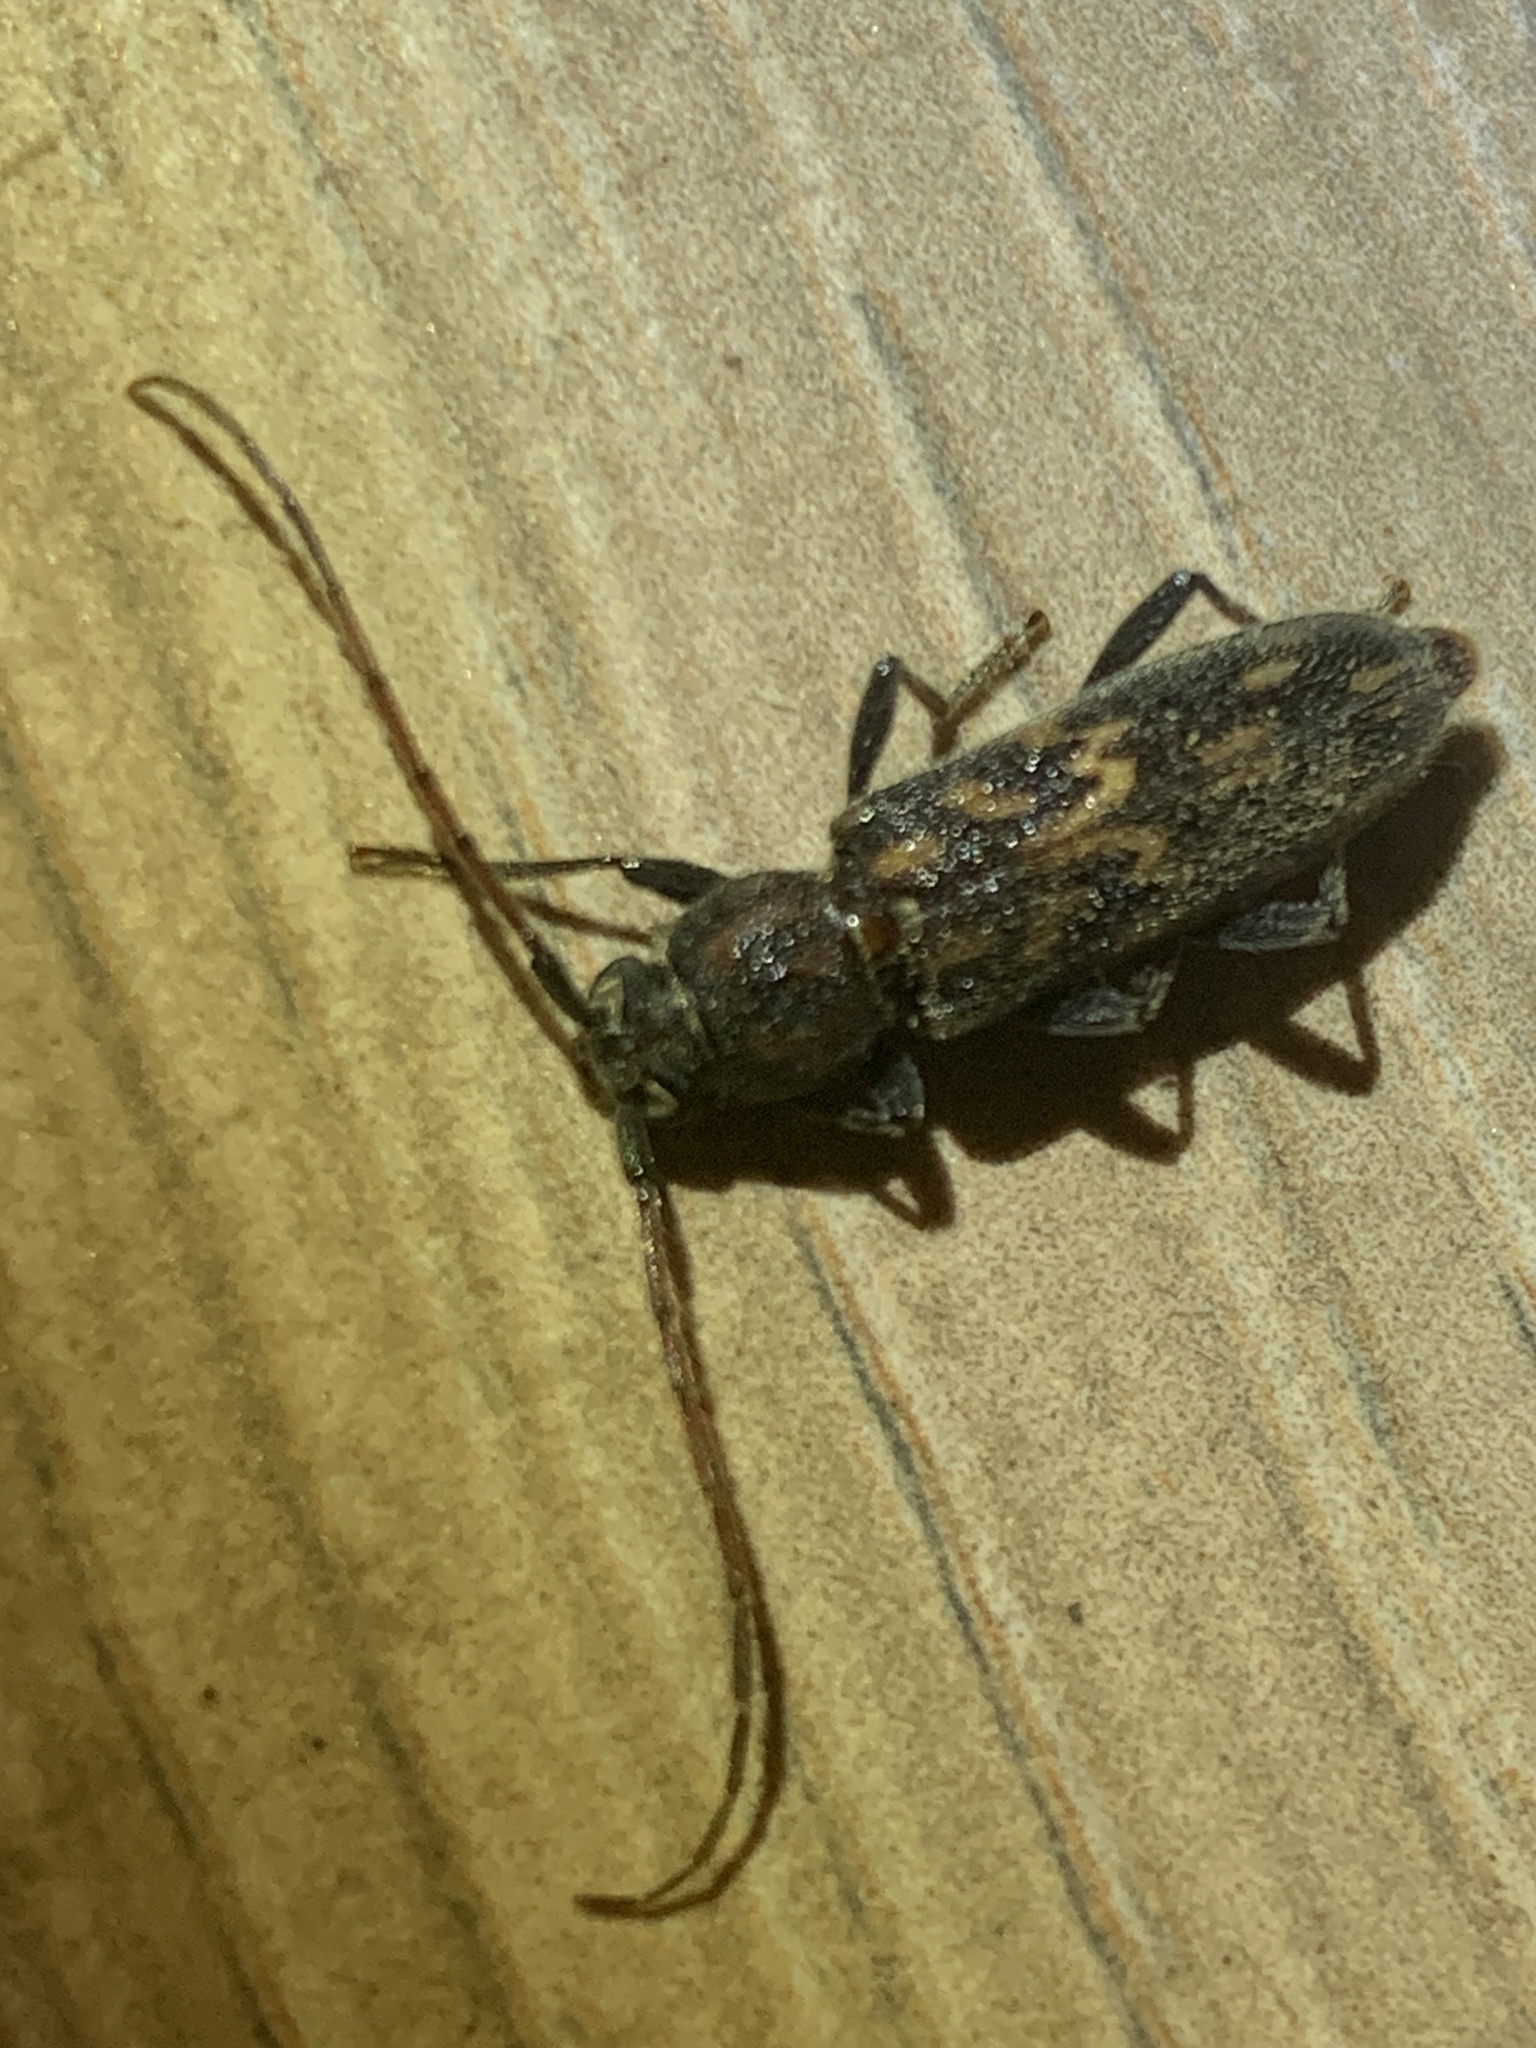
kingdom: Animalia
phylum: Arthropoda
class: Insecta
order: Coleoptera
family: Cerambycidae
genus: Achryson
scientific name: Achryson undulatum
